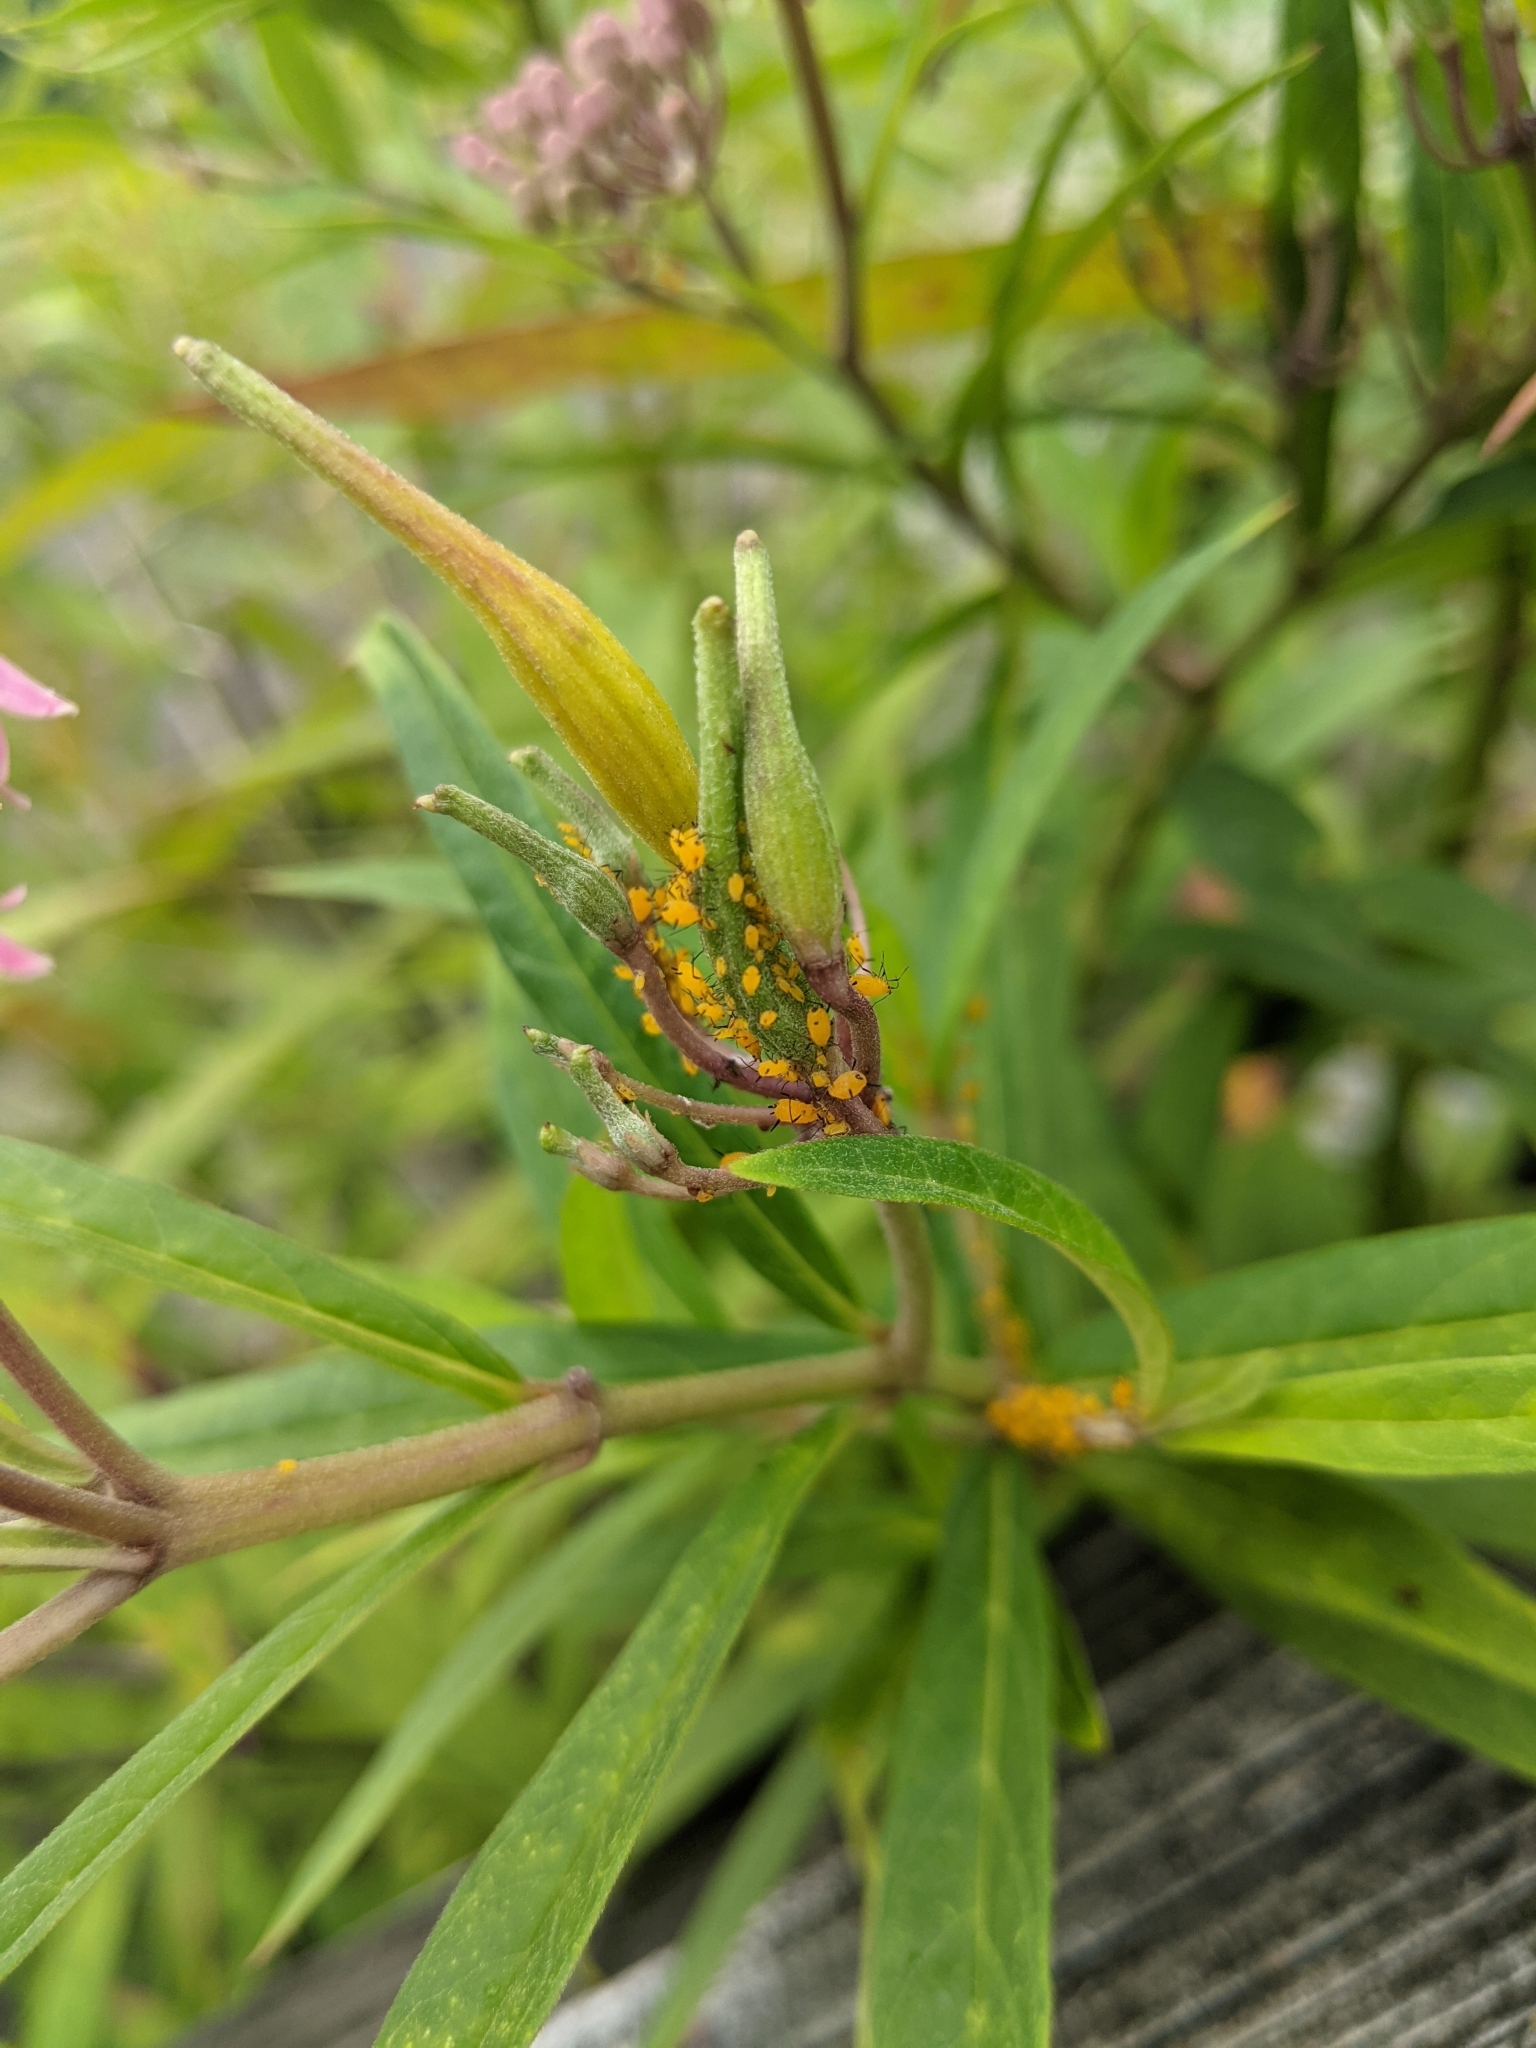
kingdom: Animalia
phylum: Arthropoda
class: Insecta
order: Hemiptera
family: Aphididae
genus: Aphis
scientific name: Aphis nerii
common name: Oleander aphid
